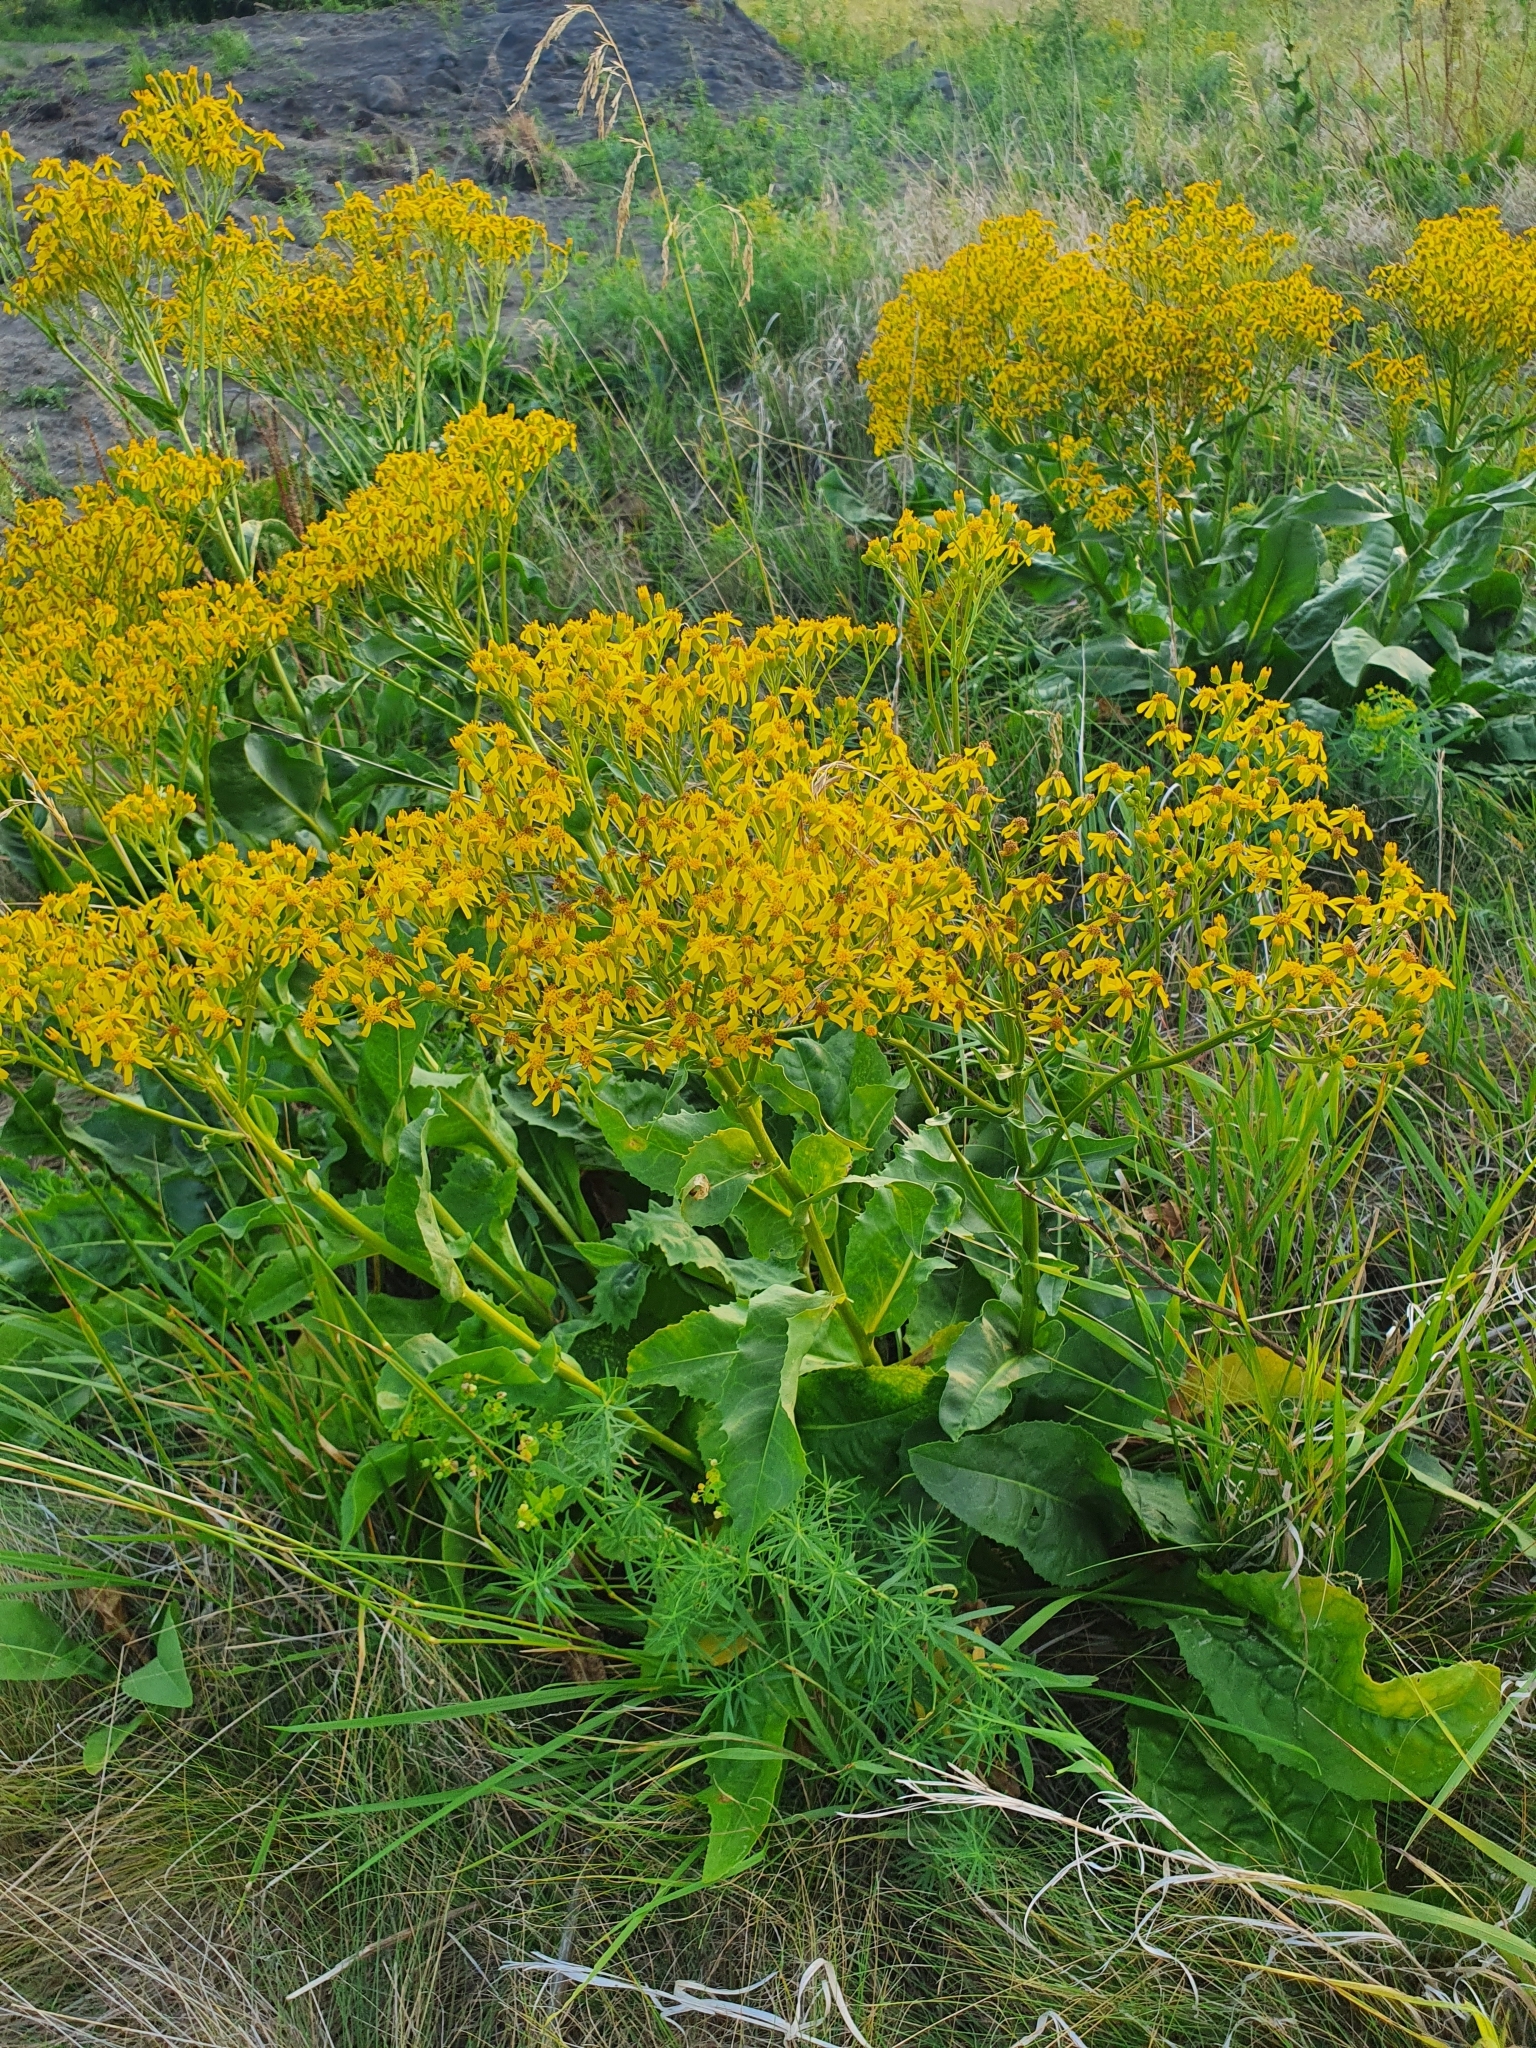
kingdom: Plantae
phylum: Tracheophyta
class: Magnoliopsida
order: Asterales
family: Asteraceae
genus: Senecio
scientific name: Senecio doria
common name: Golden ragwort
